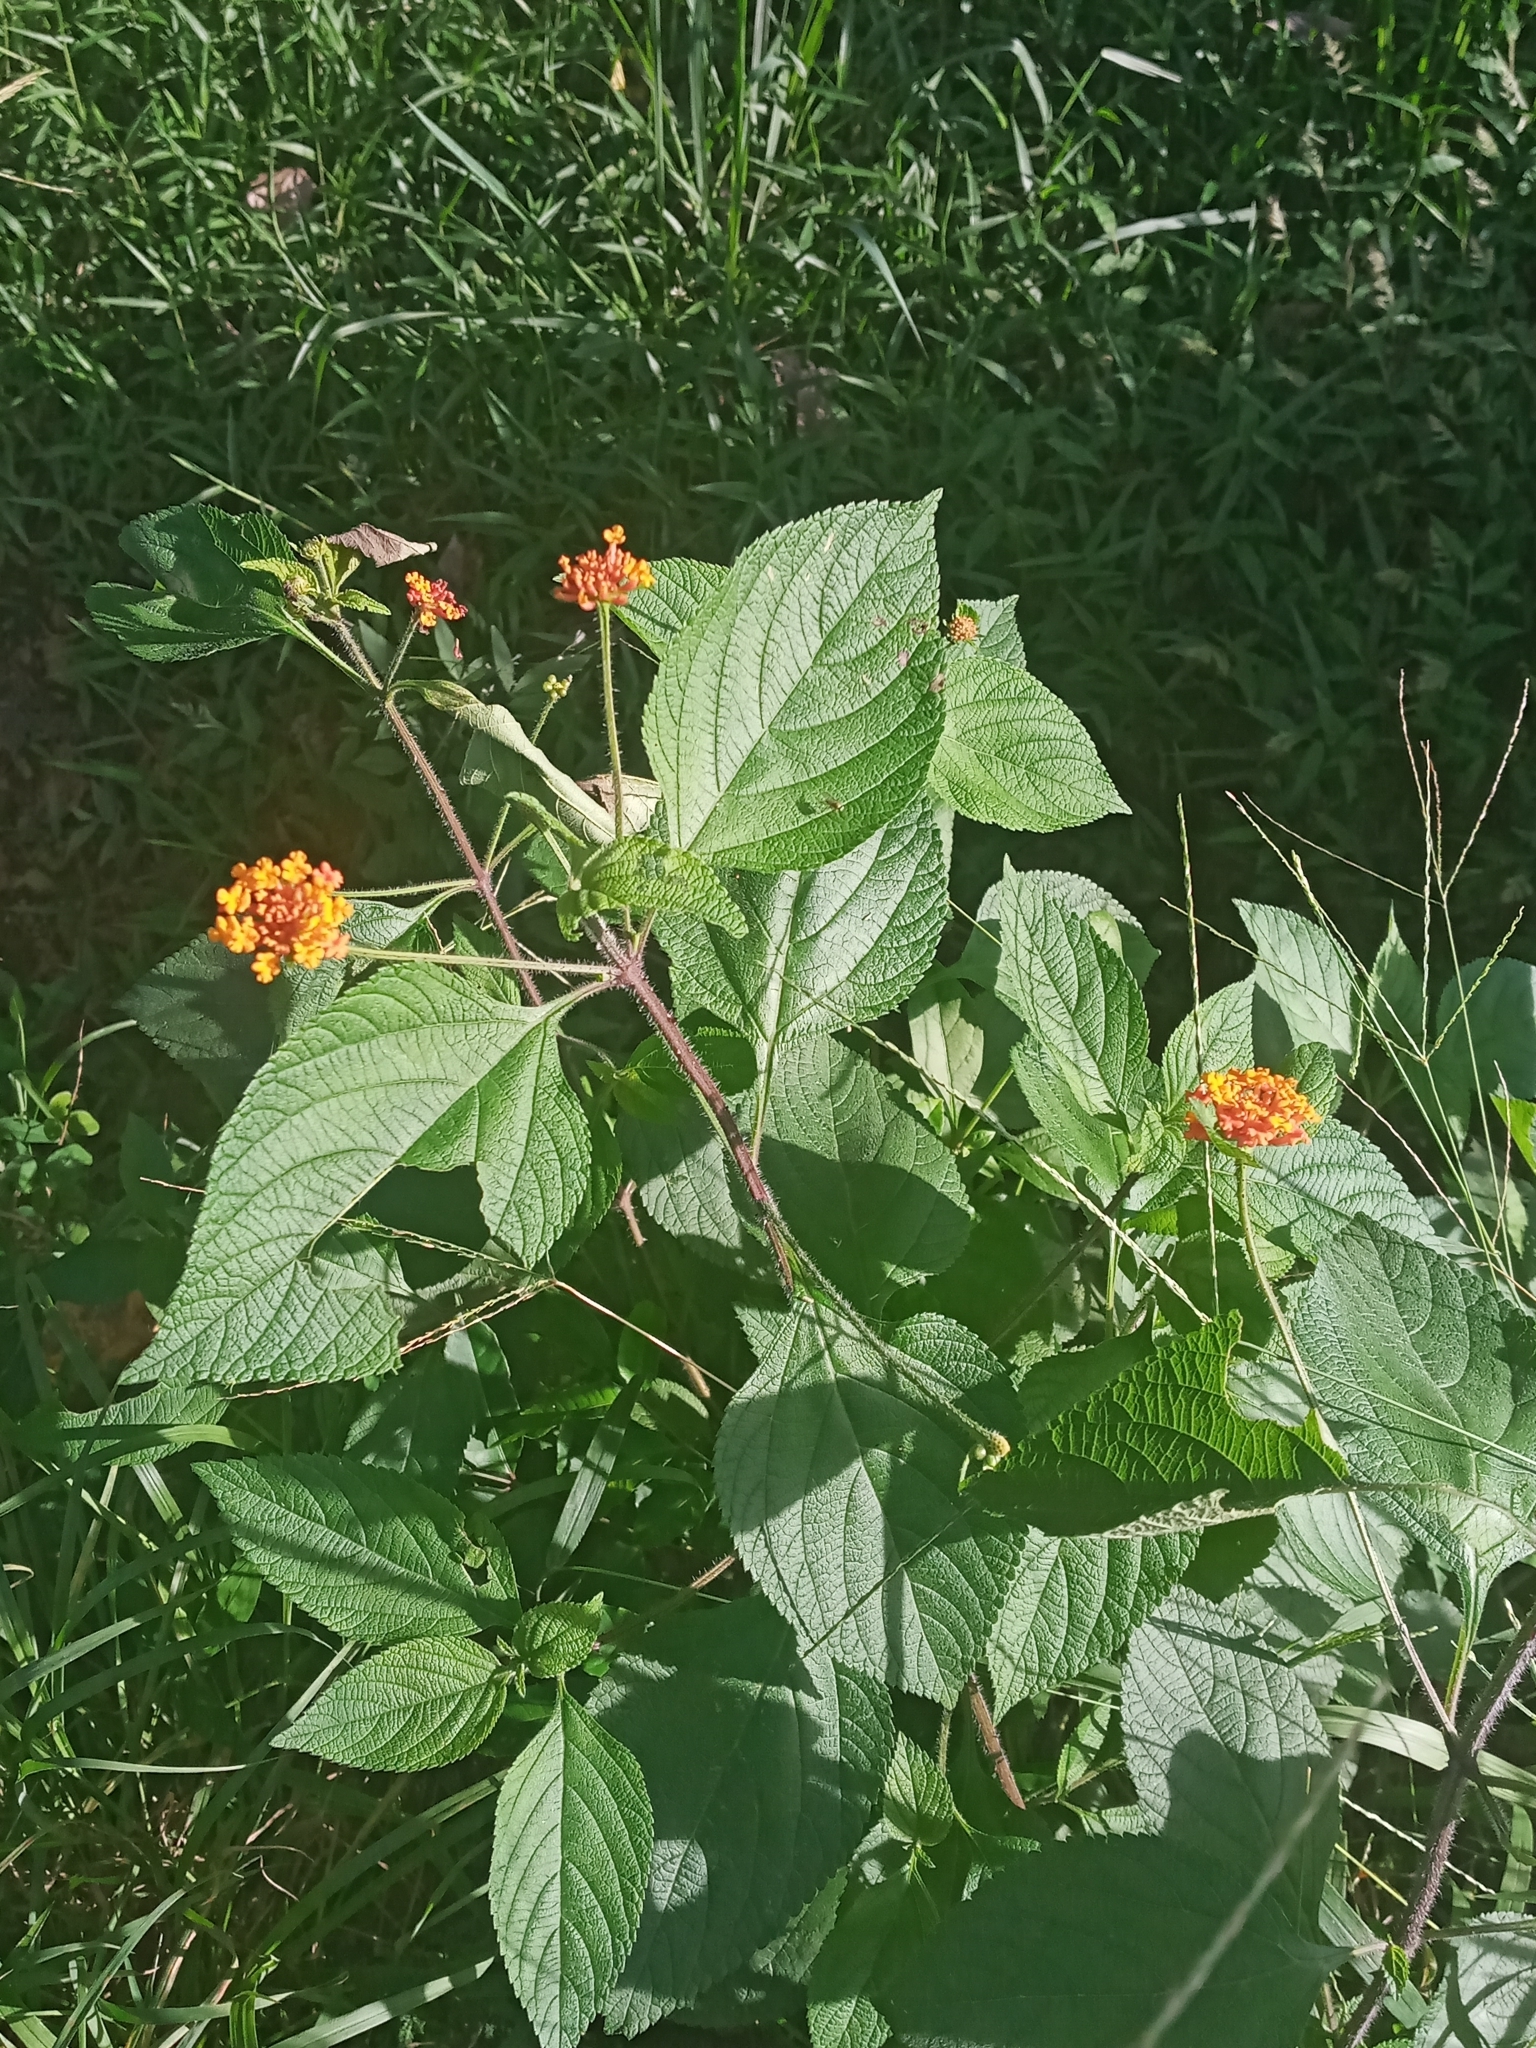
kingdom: Plantae
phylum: Tracheophyta
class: Magnoliopsida
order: Lamiales
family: Verbenaceae
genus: Lantana
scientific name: Lantana camara
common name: Lantana
